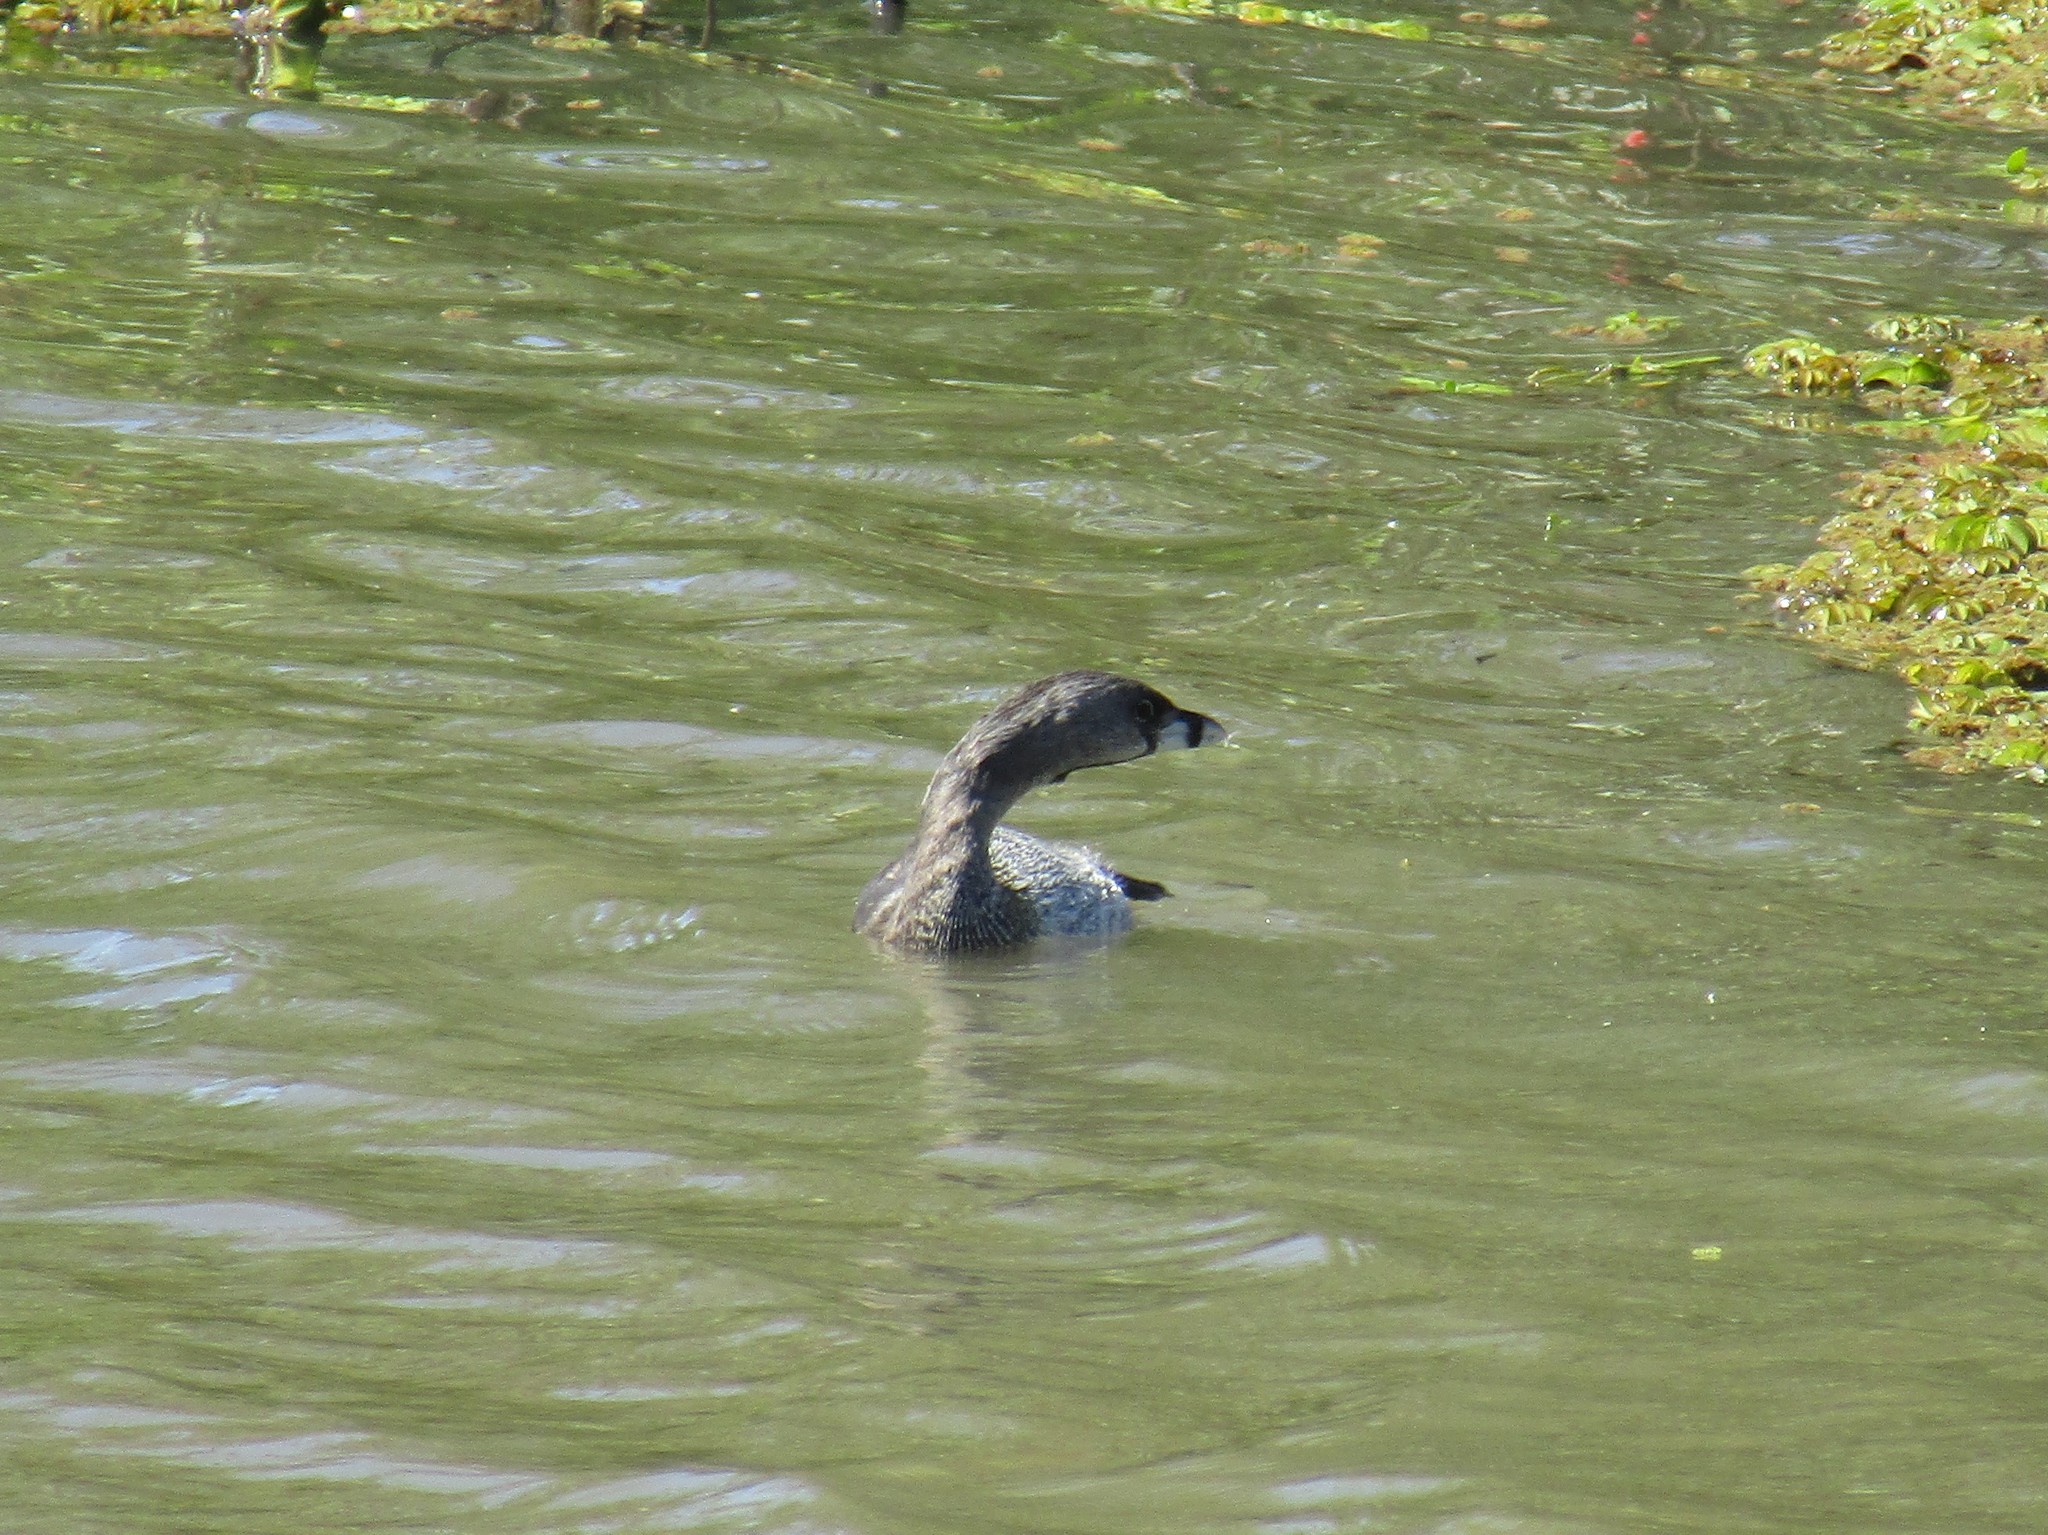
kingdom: Animalia
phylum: Chordata
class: Aves
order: Podicipediformes
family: Podicipedidae
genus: Podilymbus
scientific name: Podilymbus podiceps
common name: Pied-billed grebe
